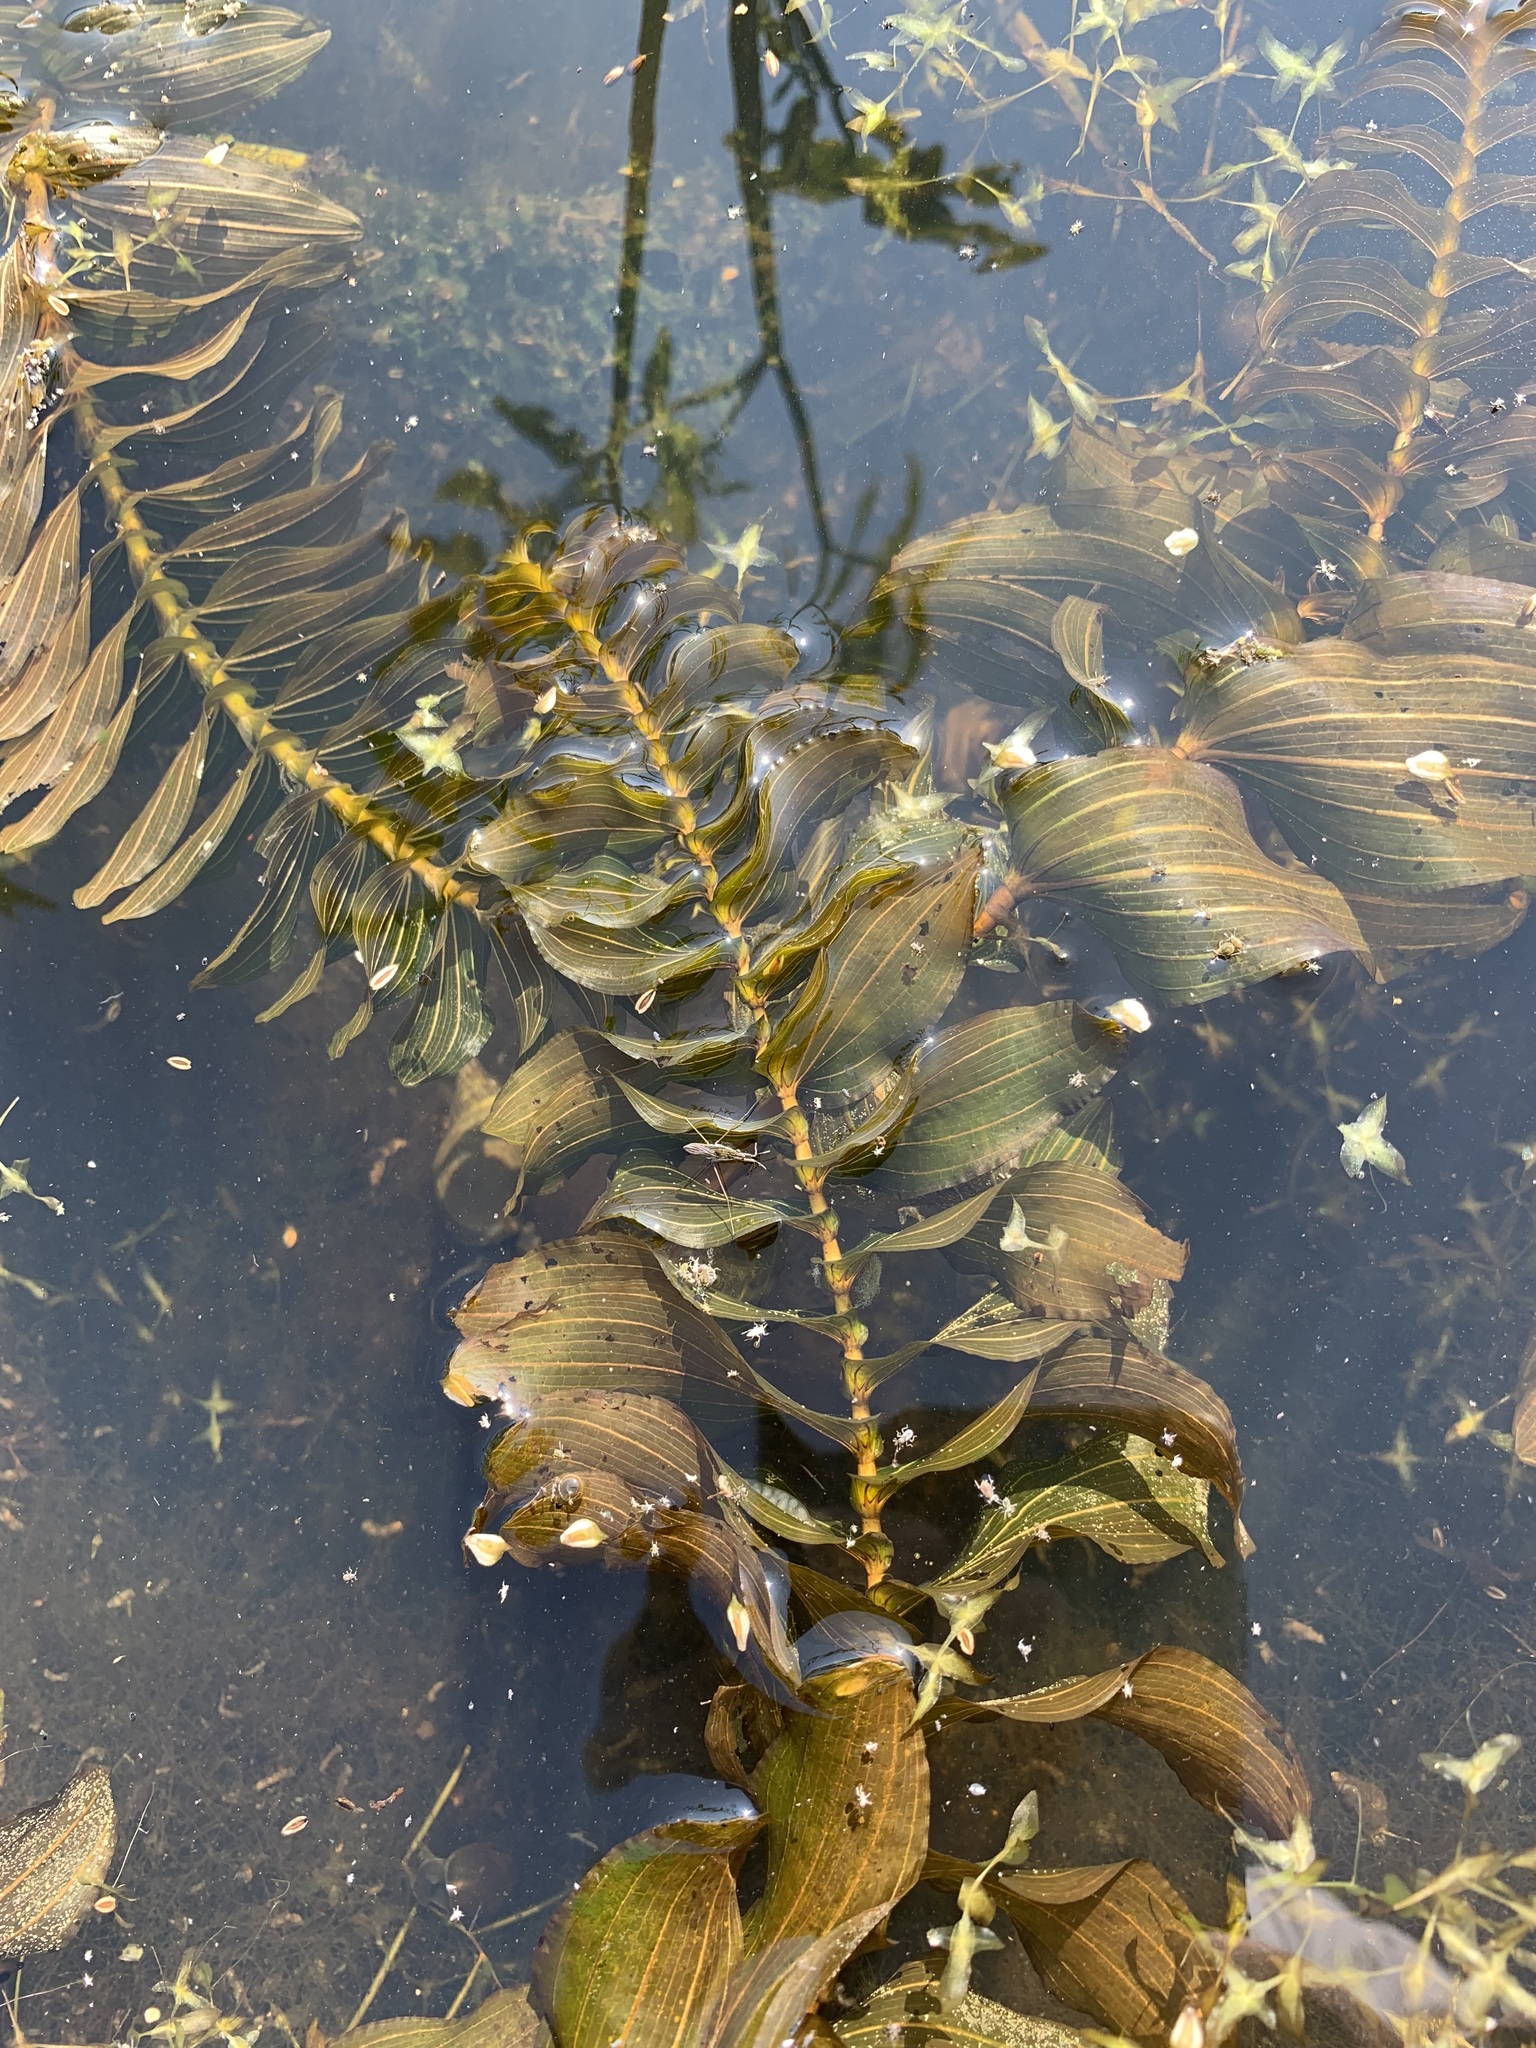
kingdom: Plantae
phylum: Tracheophyta
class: Liliopsida
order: Alismatales
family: Potamogetonaceae
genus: Potamogeton
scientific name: Potamogeton perfoliatus
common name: Perfoliate pondweed
